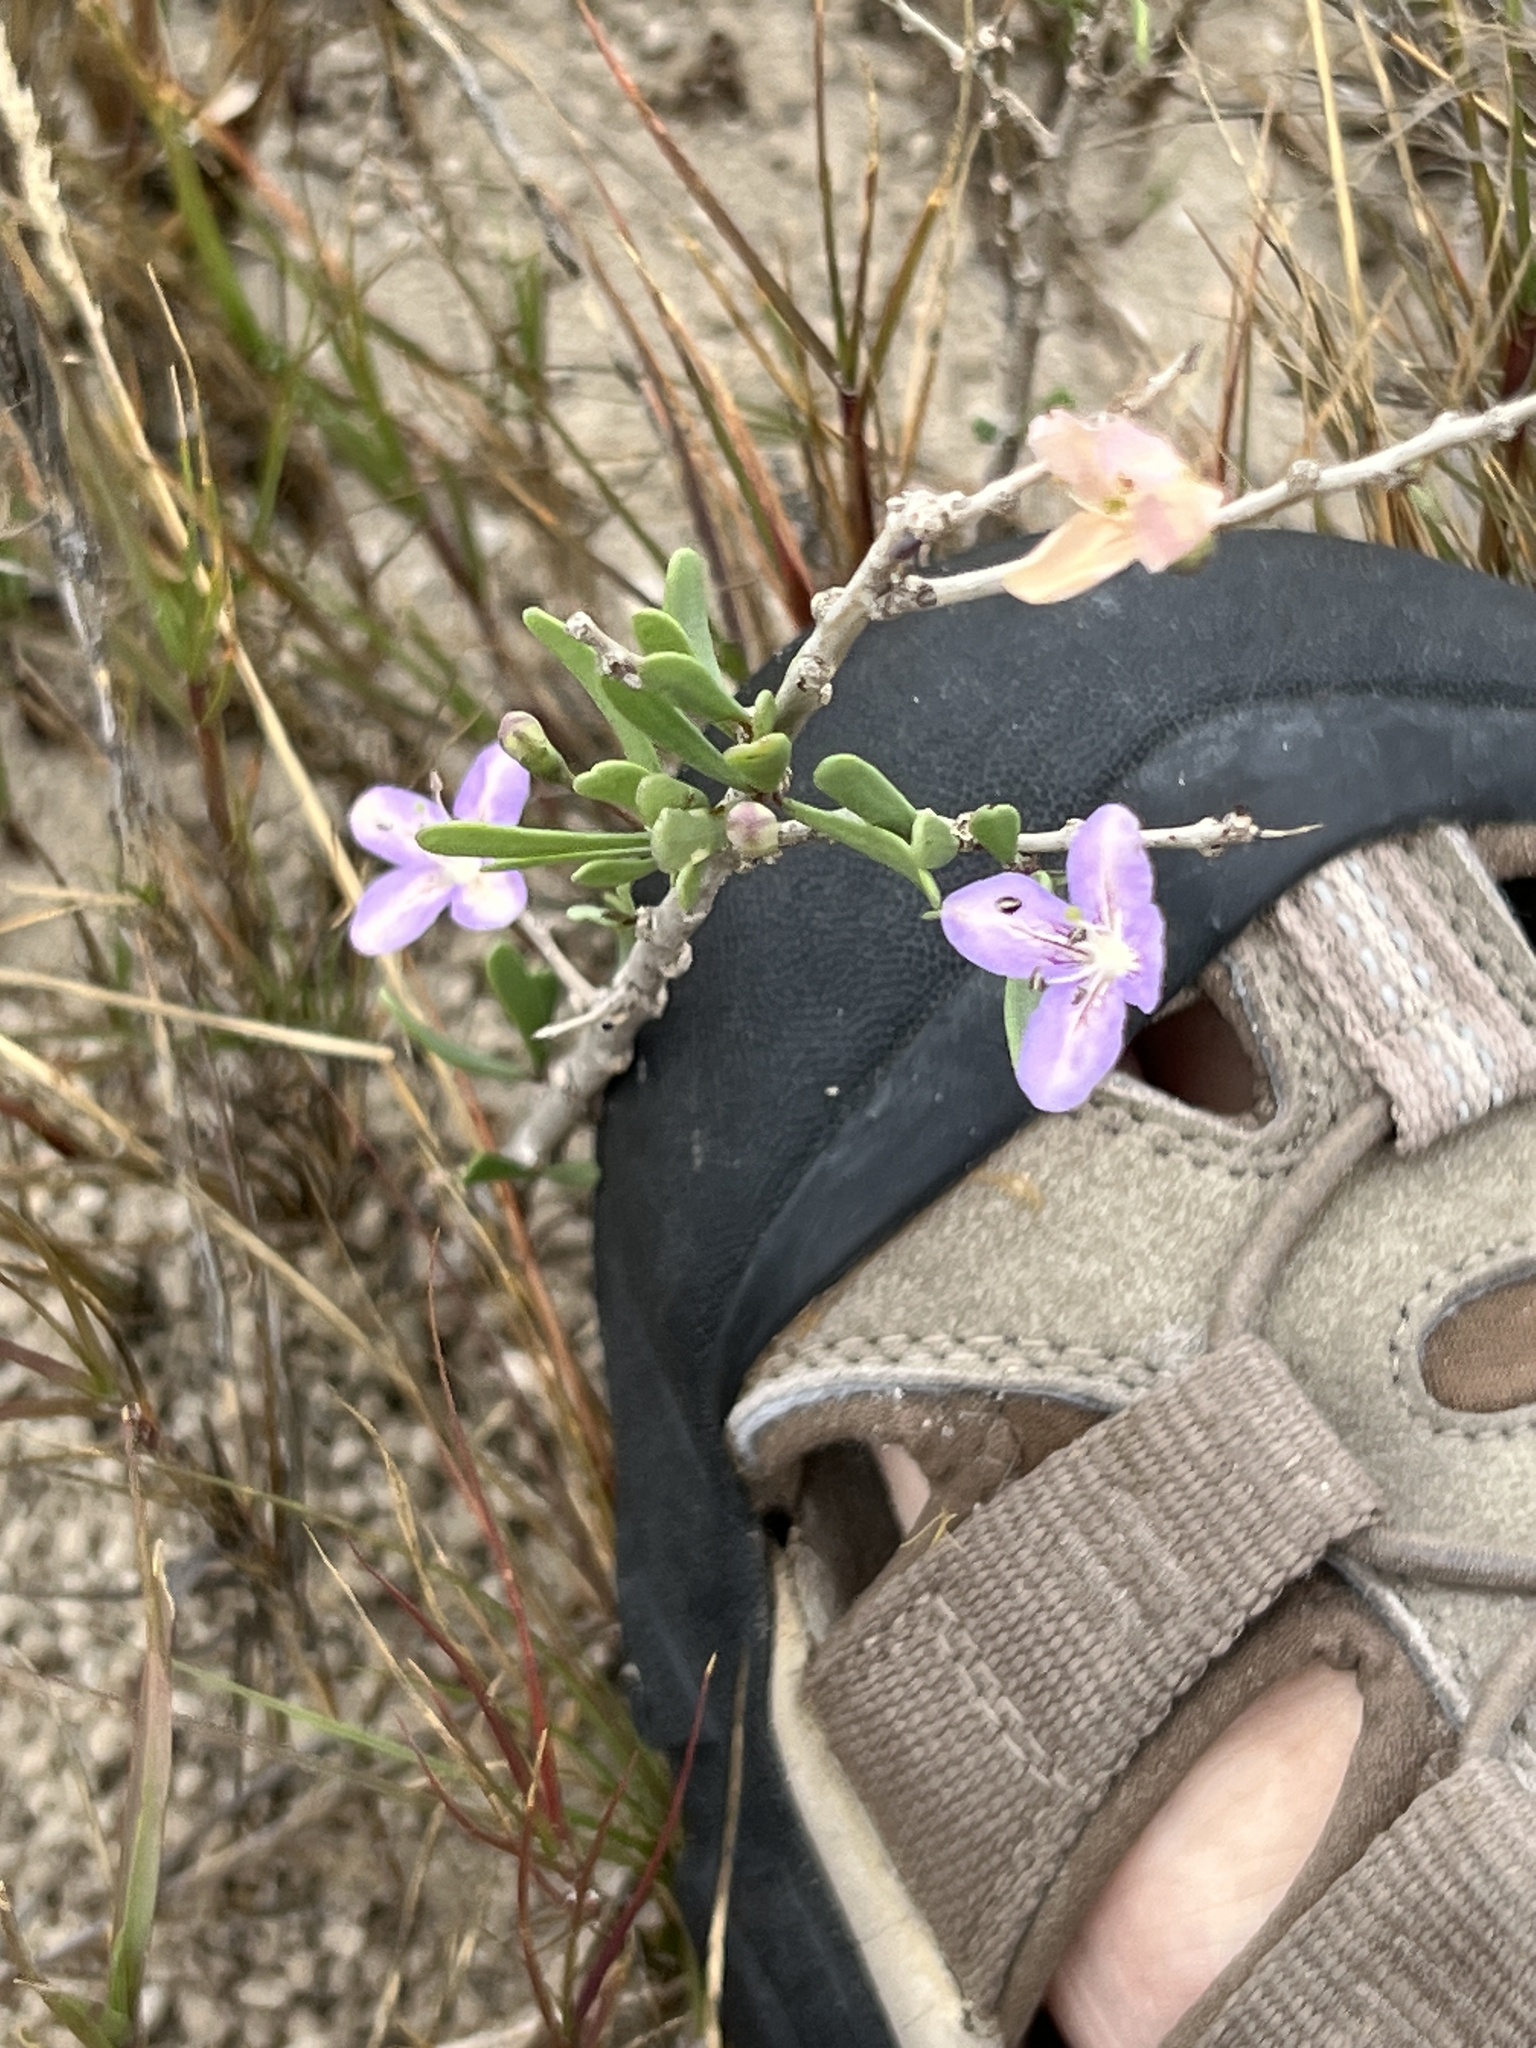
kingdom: Plantae
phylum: Tracheophyta
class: Magnoliopsida
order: Solanales
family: Solanaceae
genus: Lycium
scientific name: Lycium carolinianum
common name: Christmasberry
